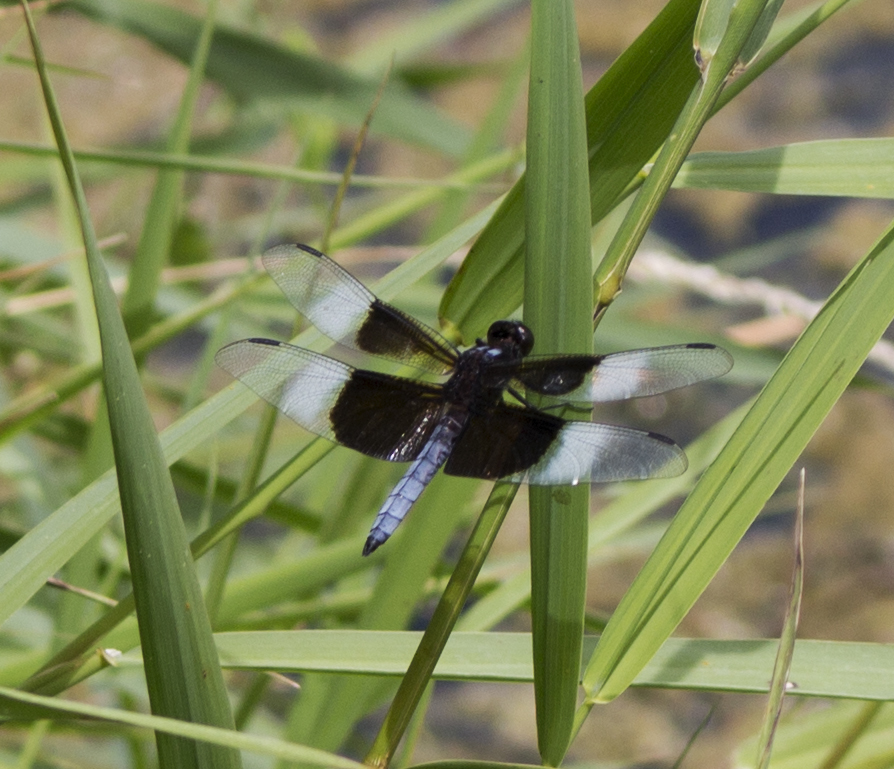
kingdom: Animalia
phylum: Arthropoda
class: Insecta
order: Odonata
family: Libellulidae
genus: Libellula
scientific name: Libellula luctuosa
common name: Widow skimmer
